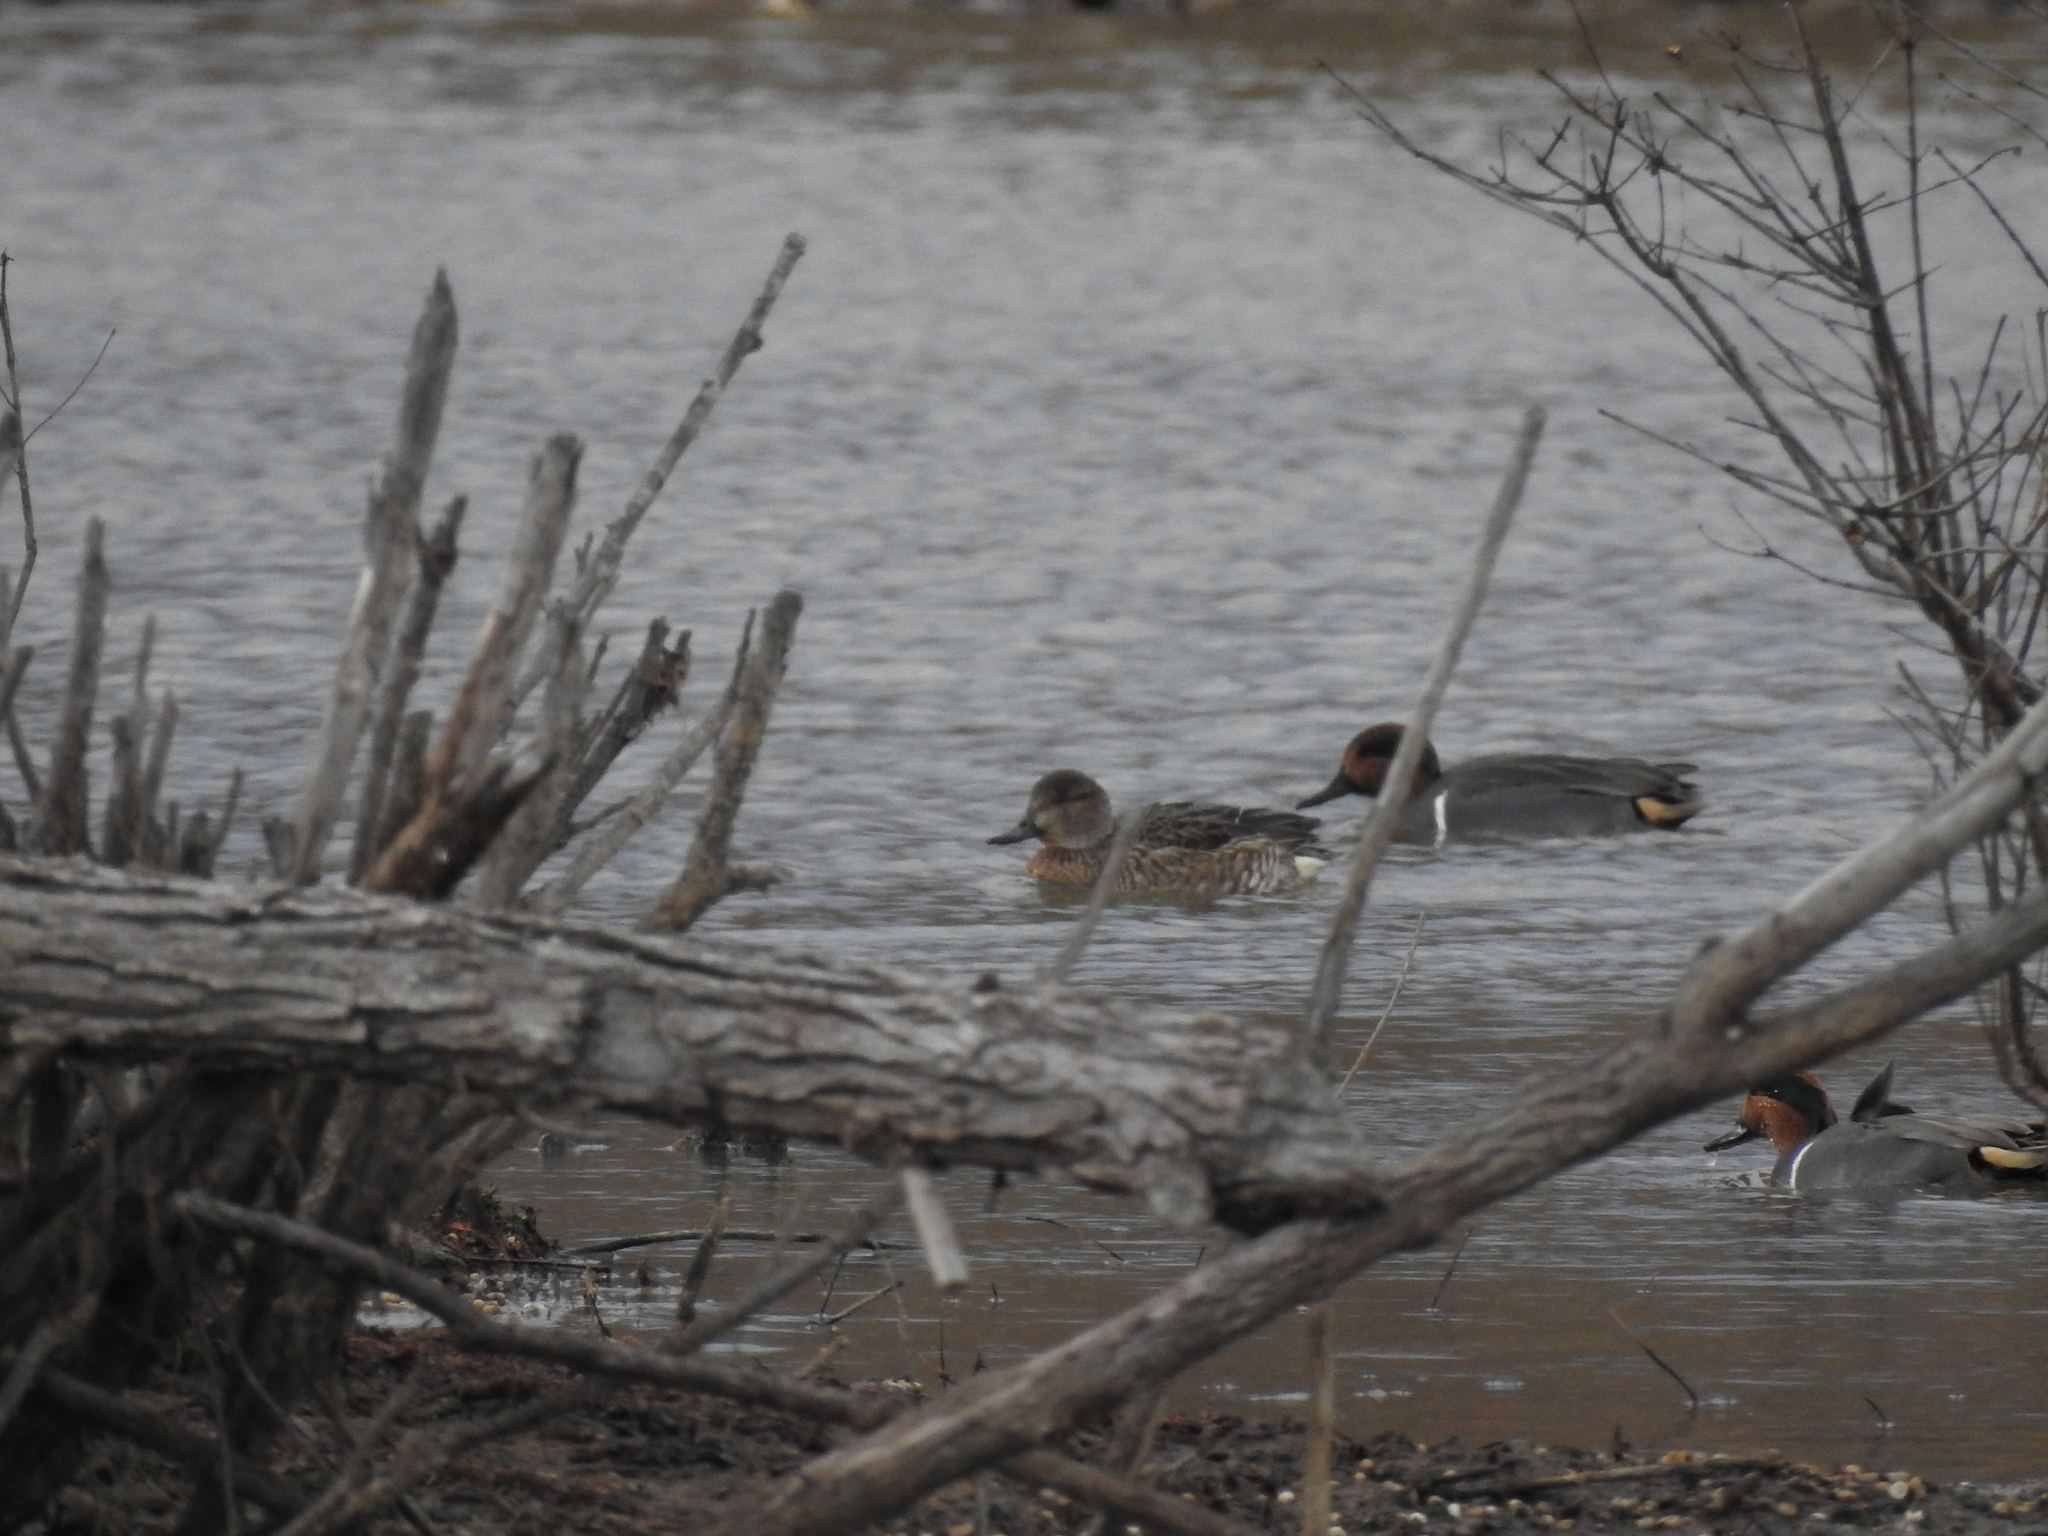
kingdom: Animalia
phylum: Chordata
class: Aves
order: Anseriformes
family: Anatidae
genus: Anas
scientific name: Anas crecca
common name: Eurasian teal
